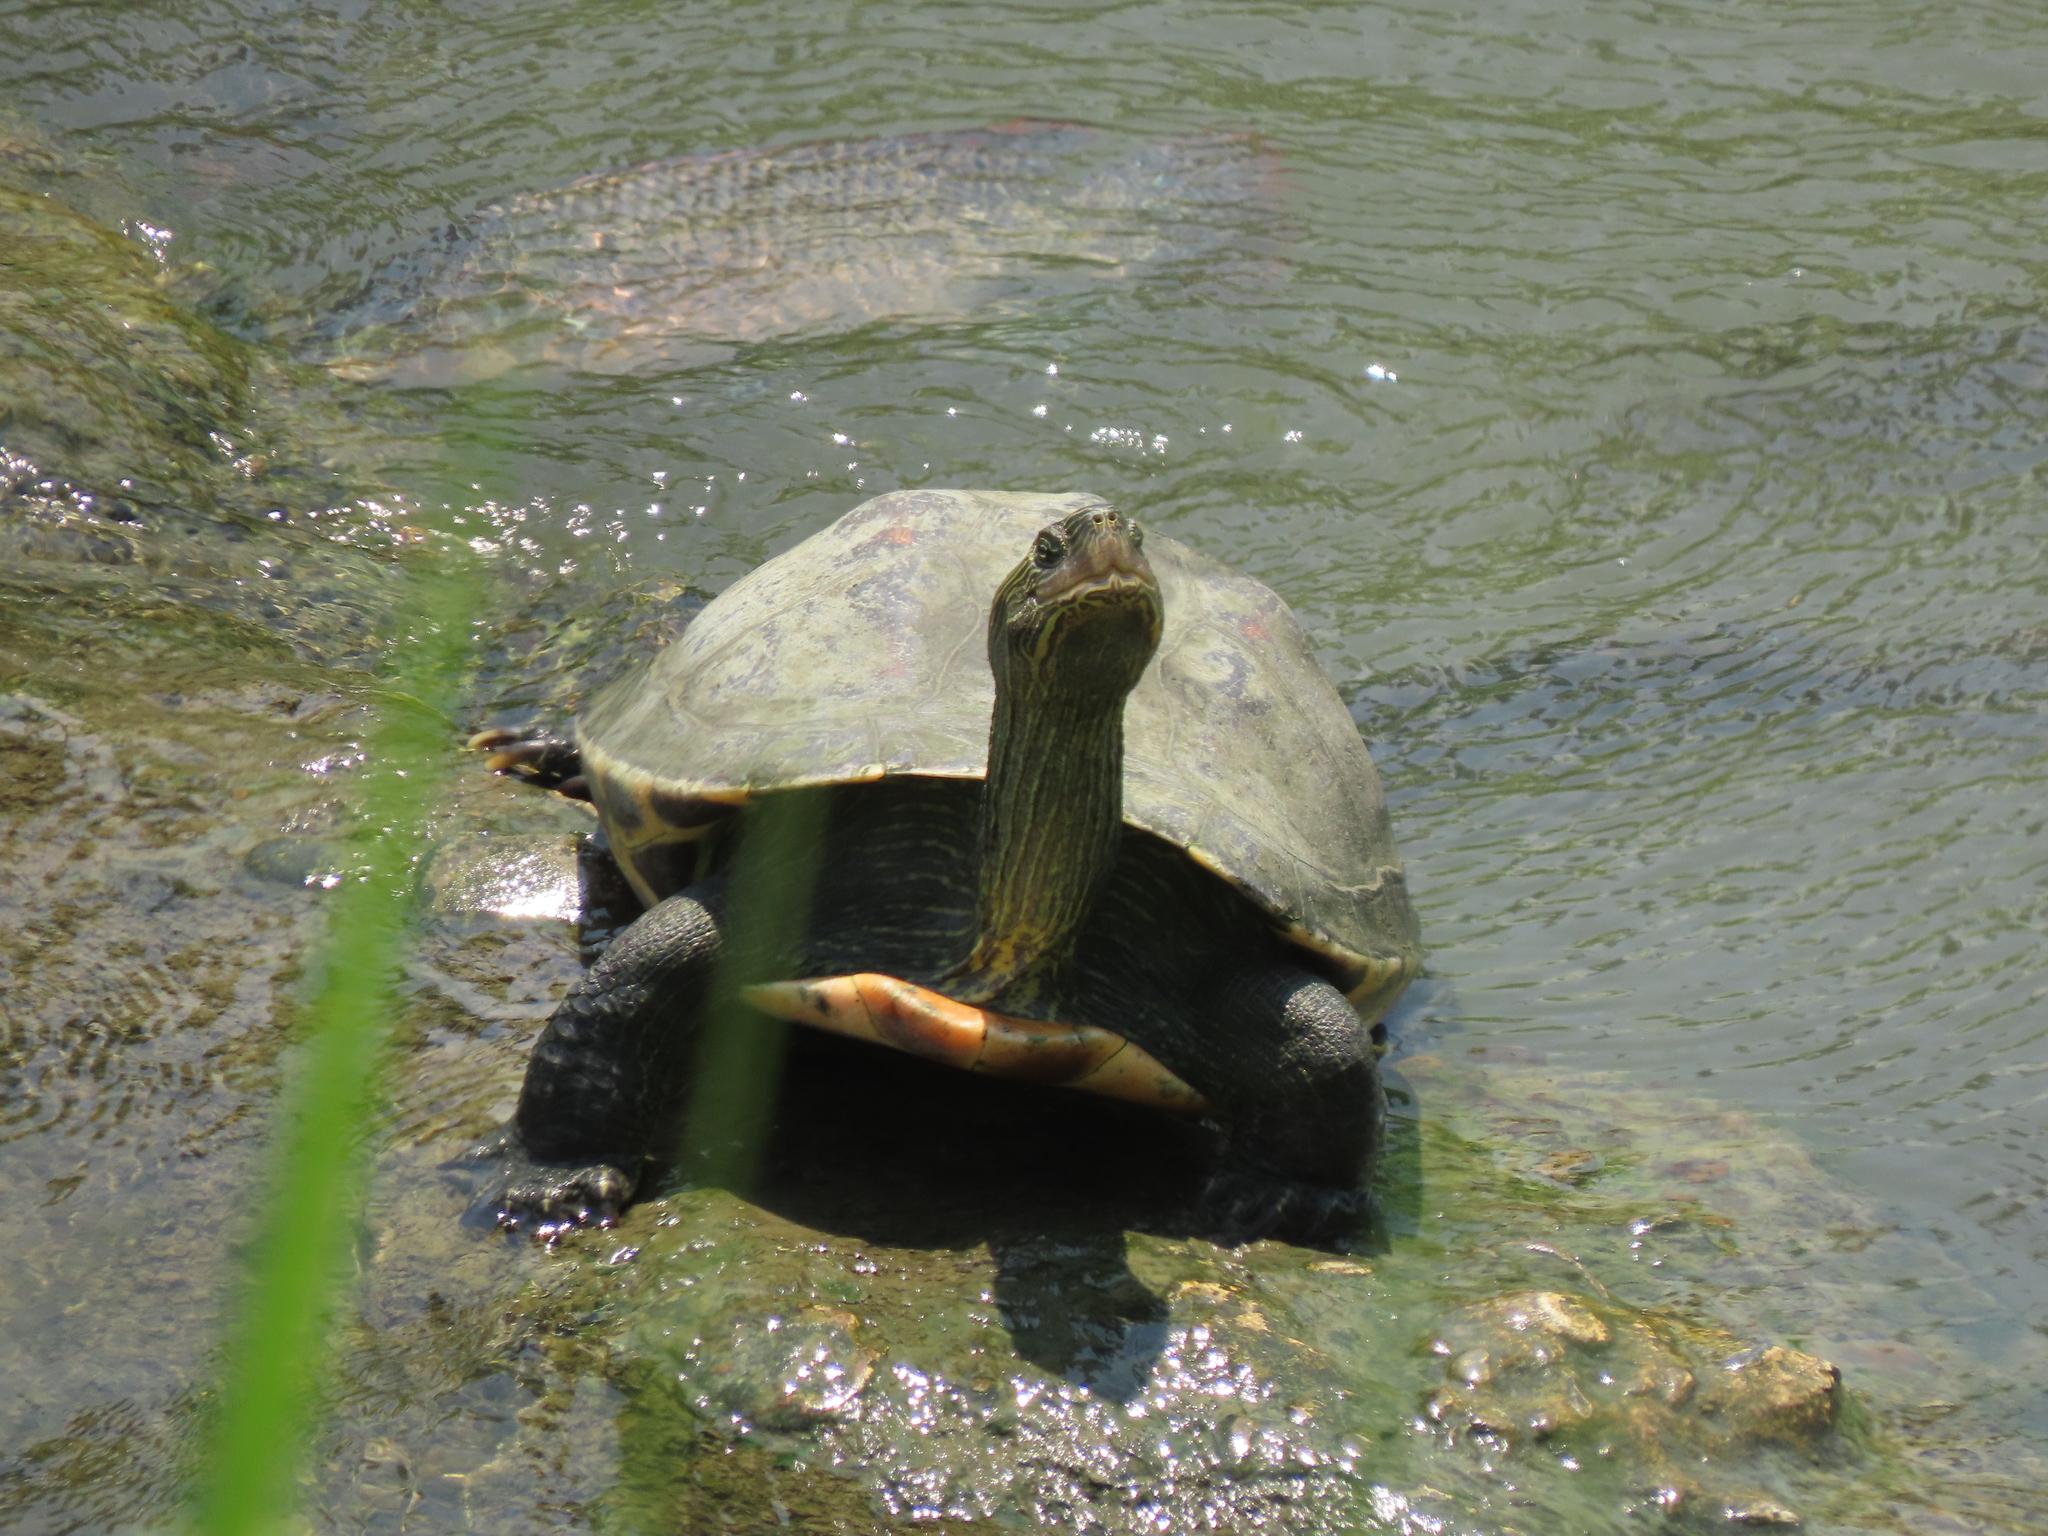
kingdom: Animalia
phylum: Chordata
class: Testudines
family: Geoemydidae
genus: Mauremys
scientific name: Mauremys sinensis
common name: Chinese stripe-necked turtle
